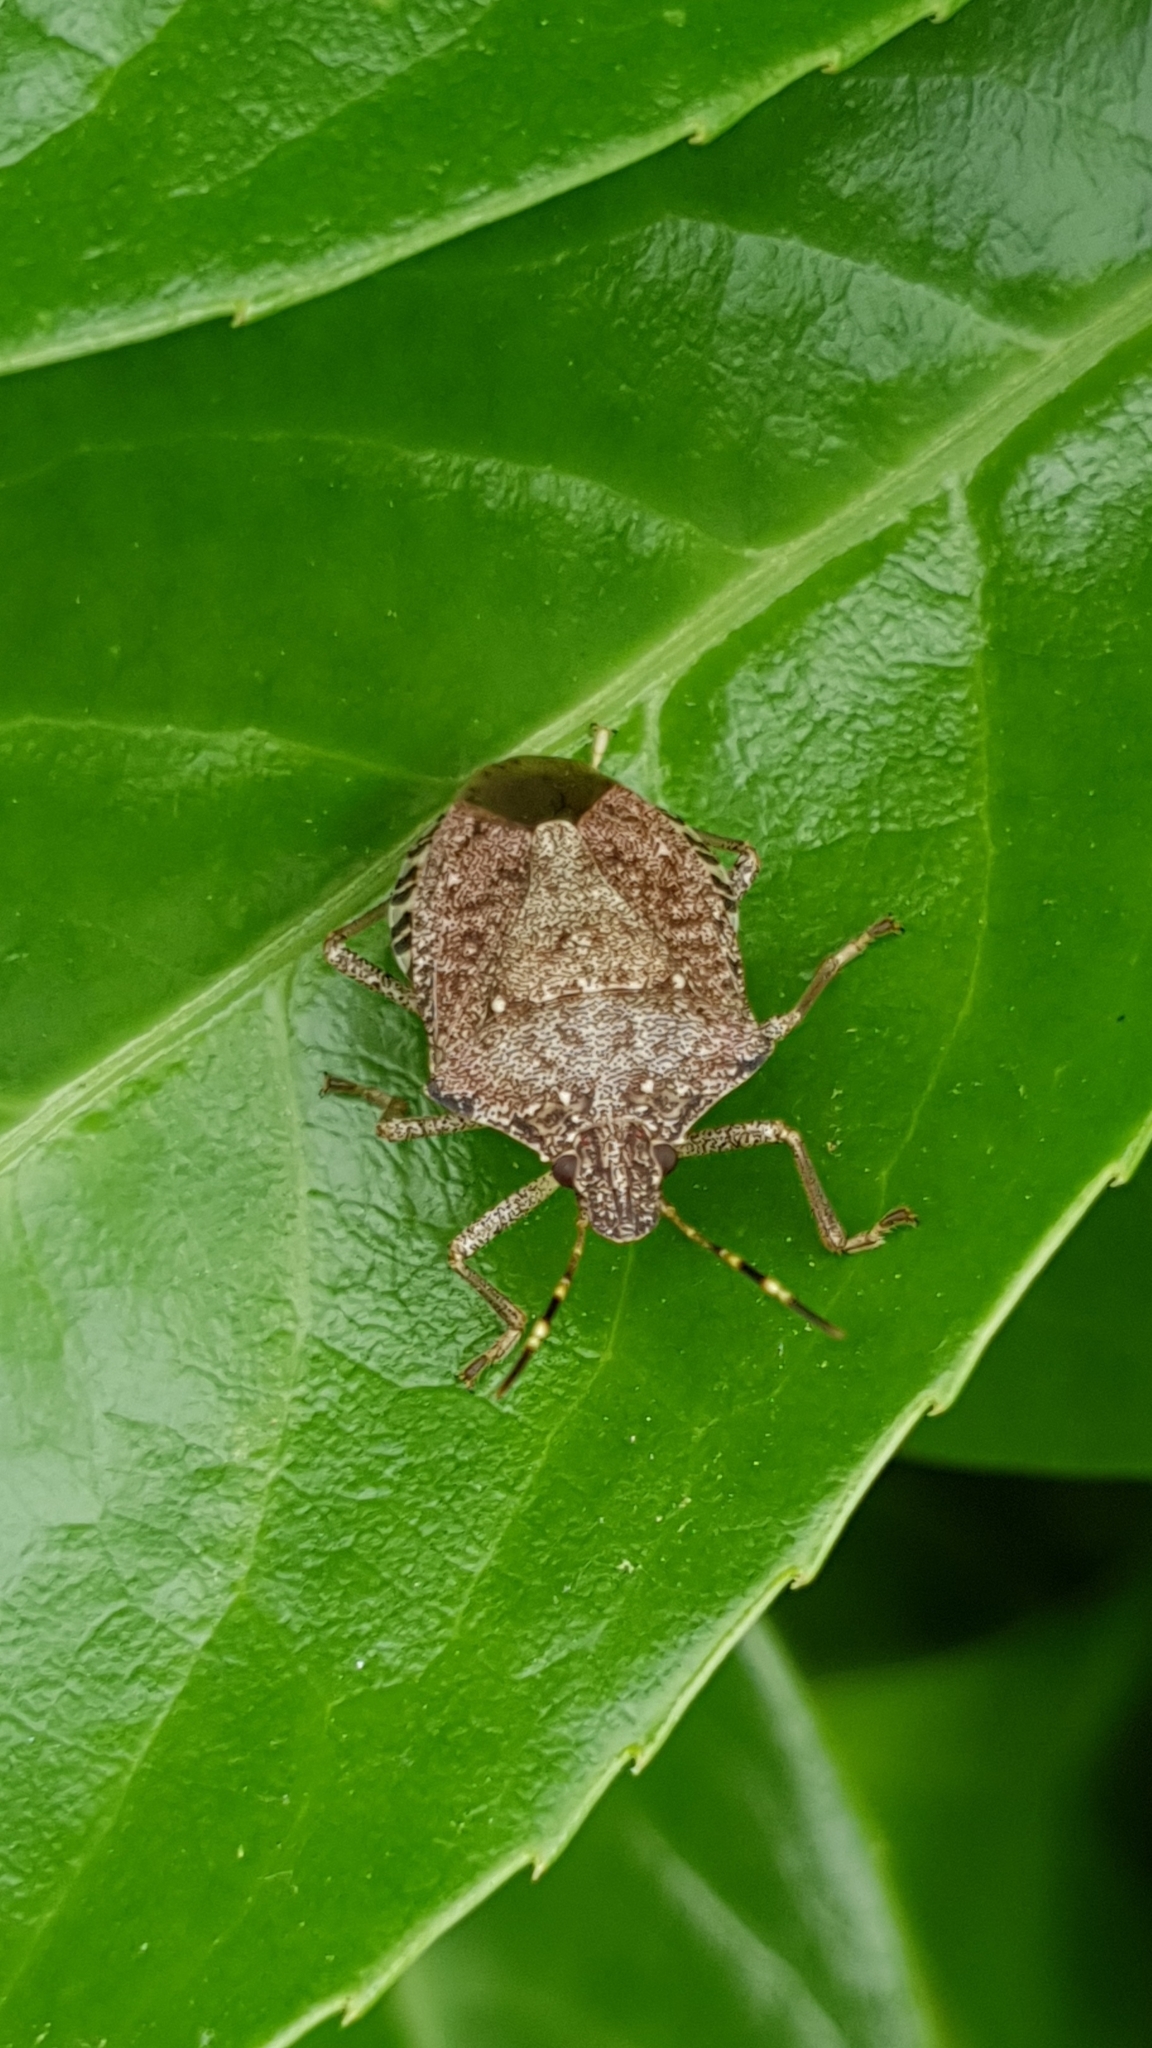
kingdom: Animalia
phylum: Arthropoda
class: Insecta
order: Hemiptera
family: Pentatomidae
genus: Halyomorpha
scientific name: Halyomorpha halys
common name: Brown marmorated stink bug
